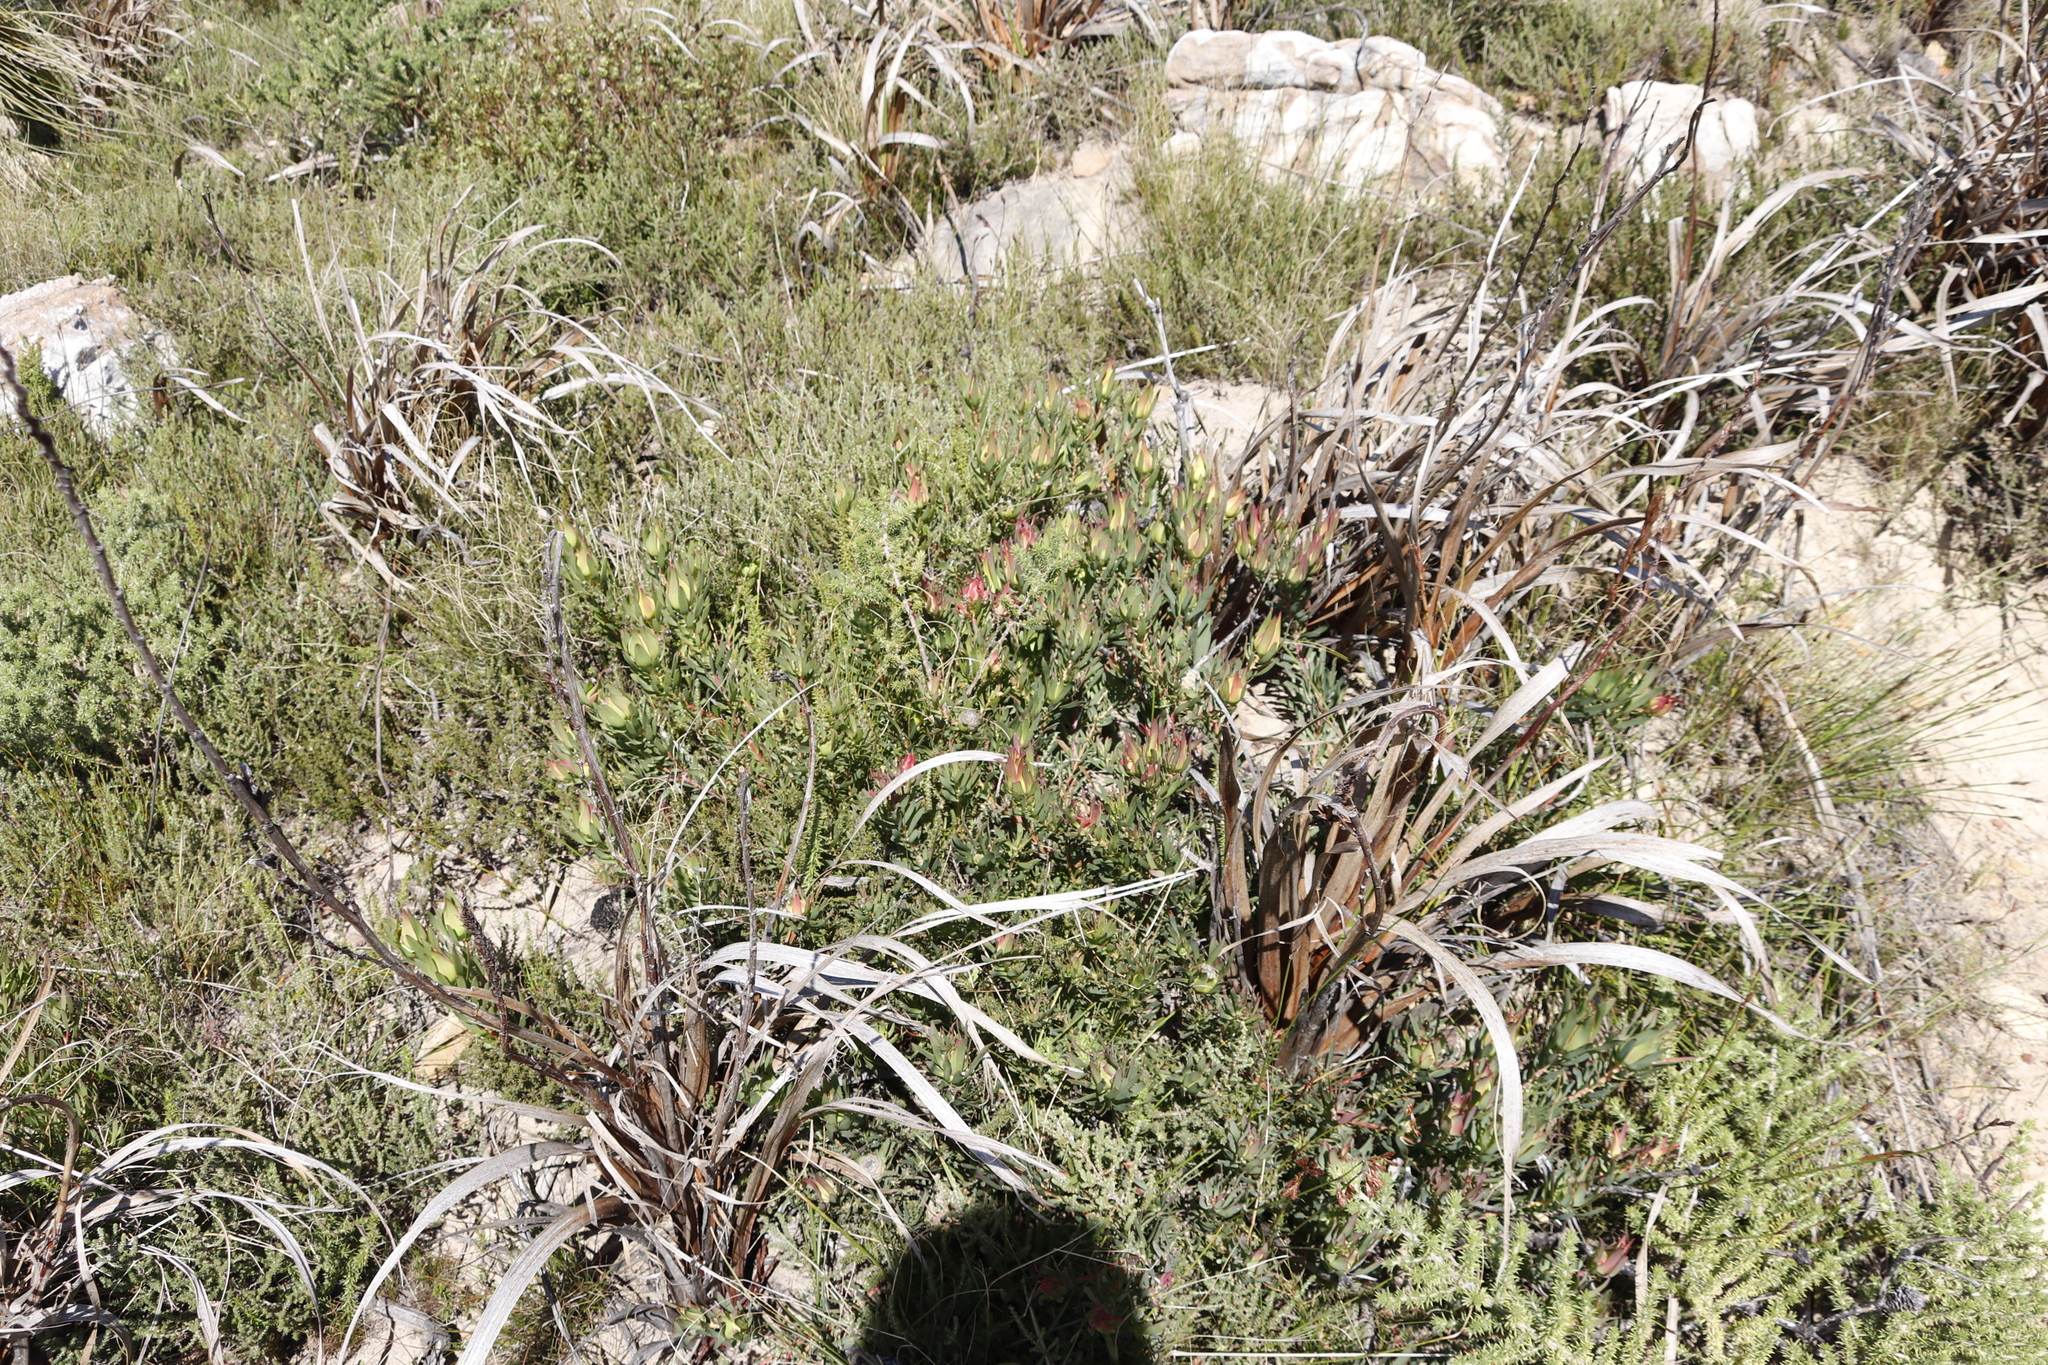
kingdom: Plantae
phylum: Tracheophyta
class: Magnoliopsida
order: Proteales
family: Proteaceae
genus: Leucadendron
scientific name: Leucadendron salignum
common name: Common sunshine conebush
